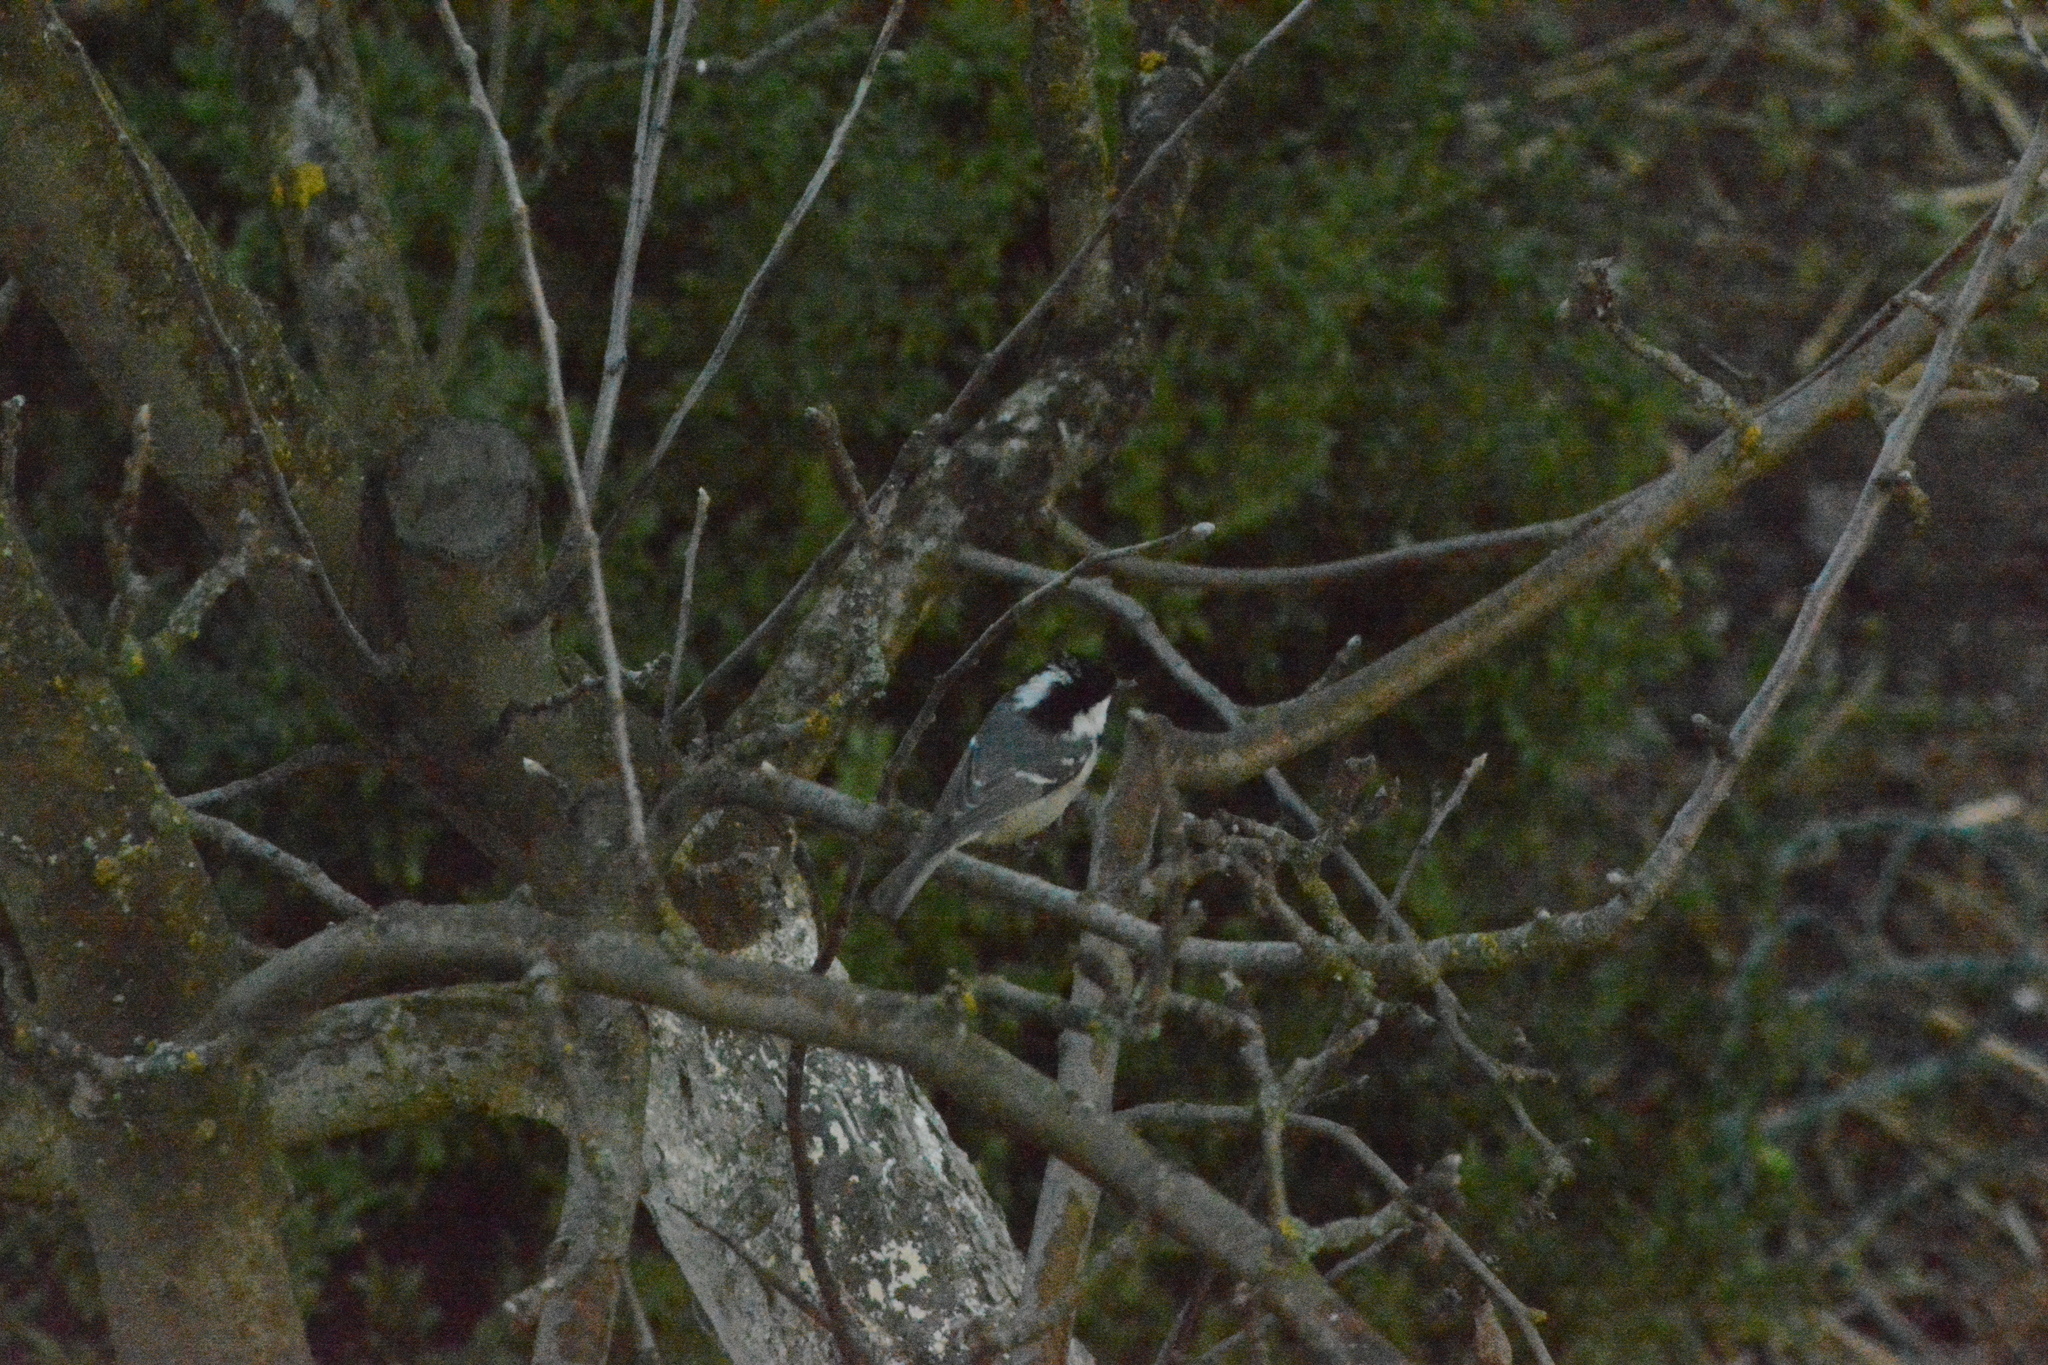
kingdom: Animalia
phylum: Chordata
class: Aves
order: Passeriformes
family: Paridae
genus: Periparus
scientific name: Periparus ater
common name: Coal tit
